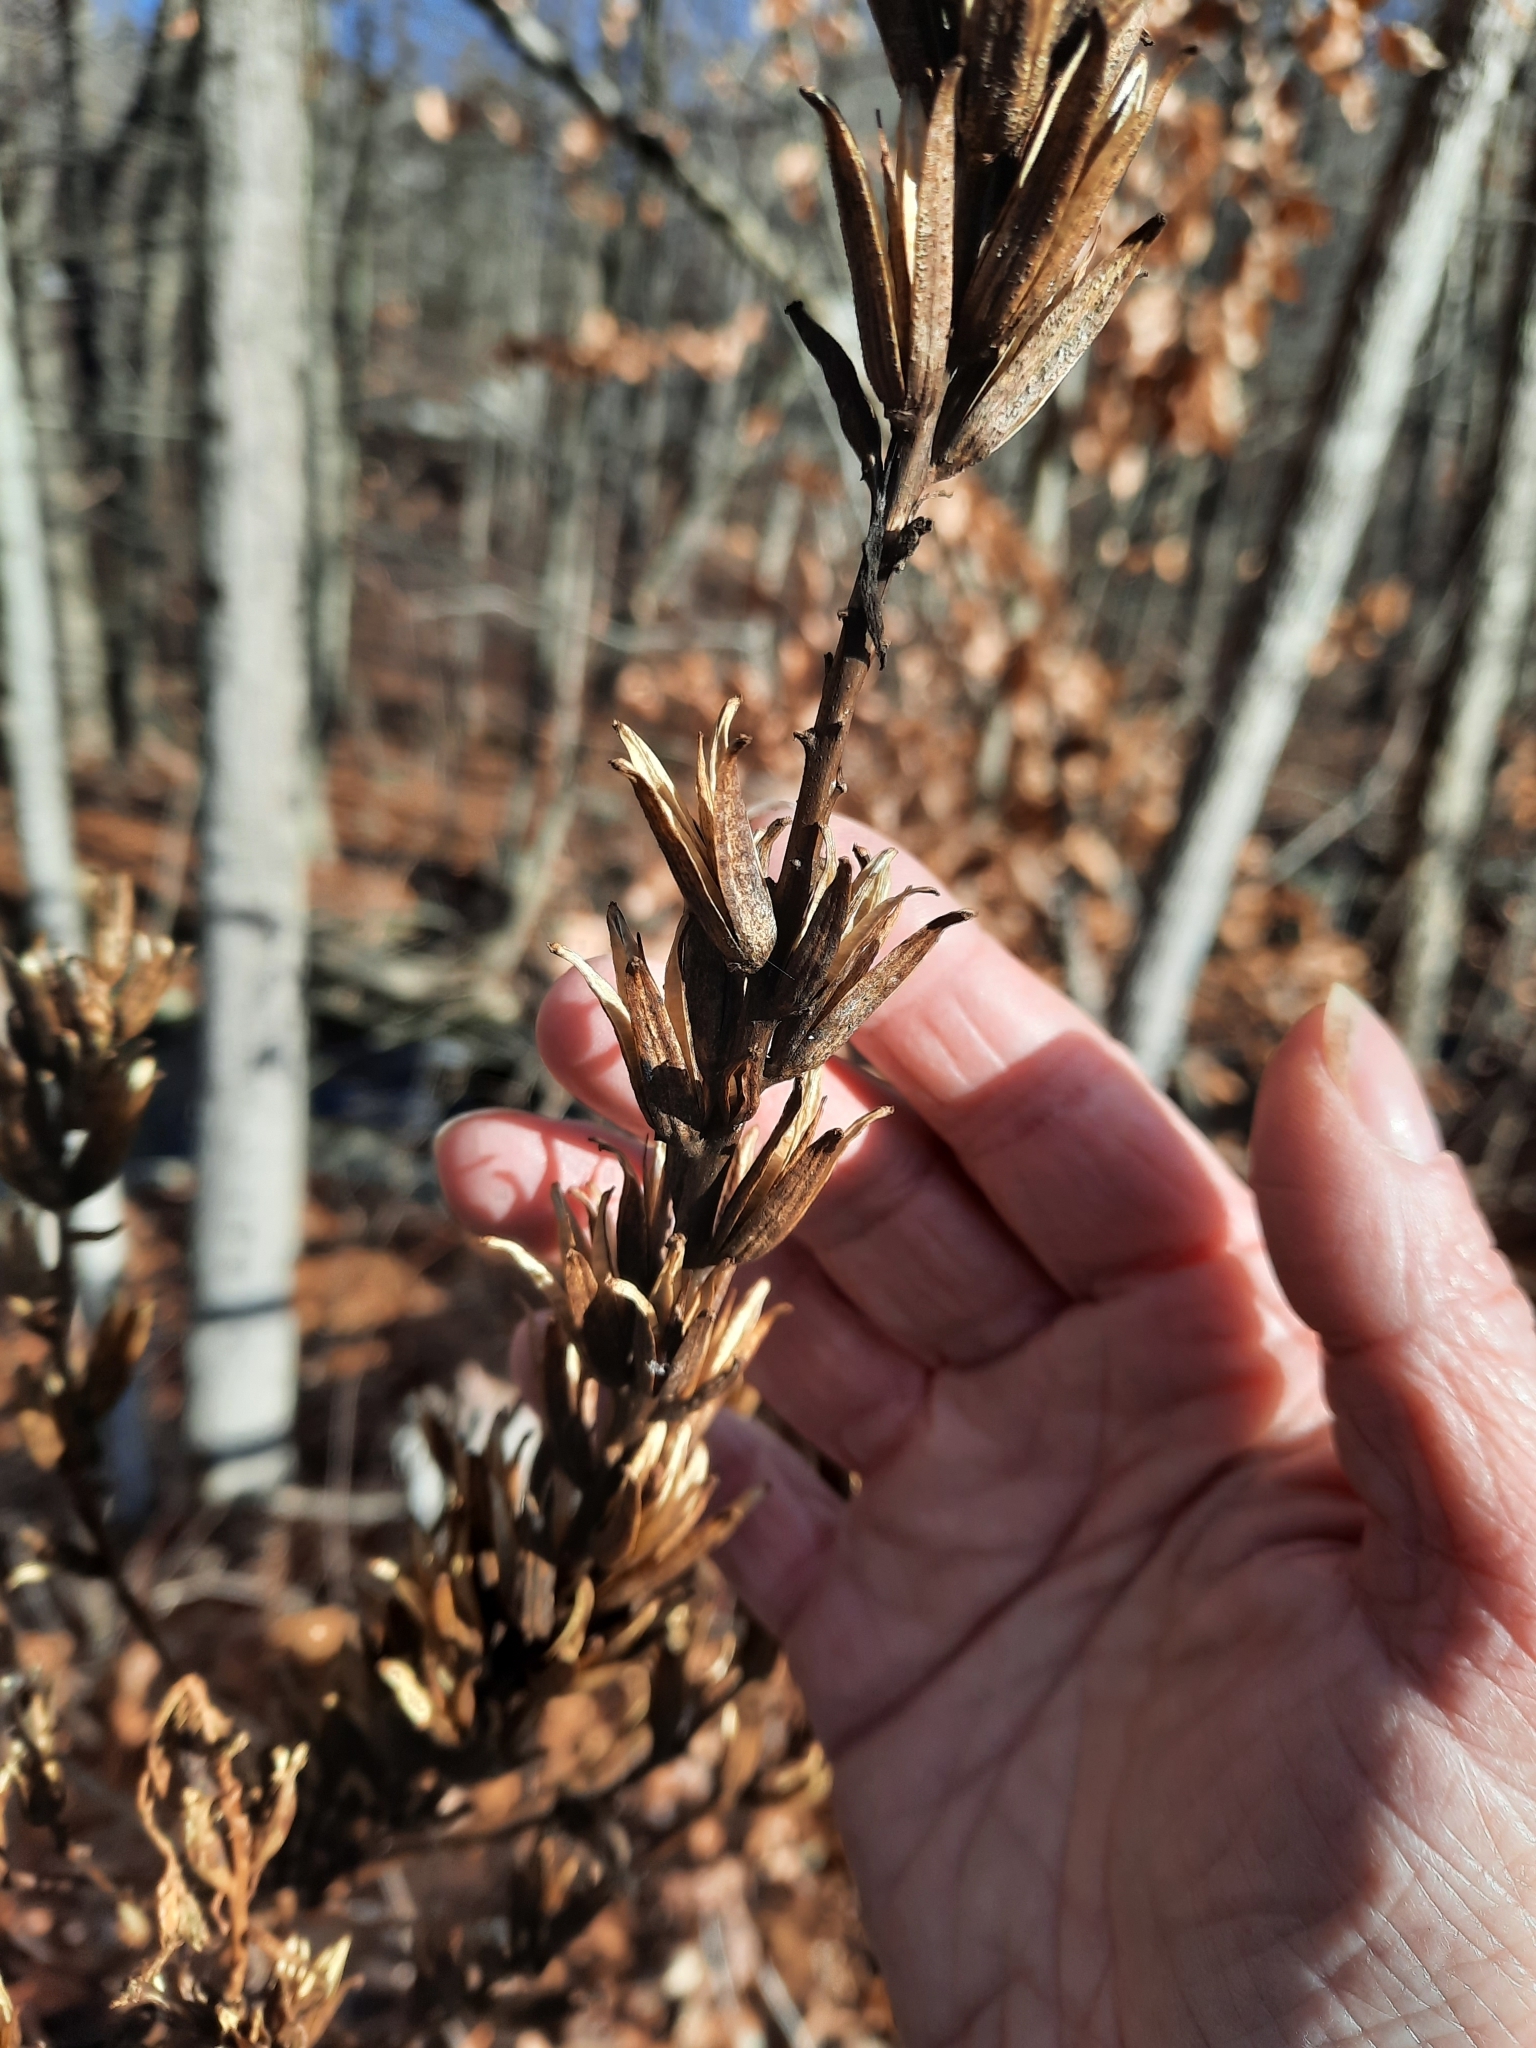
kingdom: Plantae
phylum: Tracheophyta
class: Magnoliopsida
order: Myrtales
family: Onagraceae
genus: Oenothera
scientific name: Oenothera biennis
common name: Common evening-primrose
